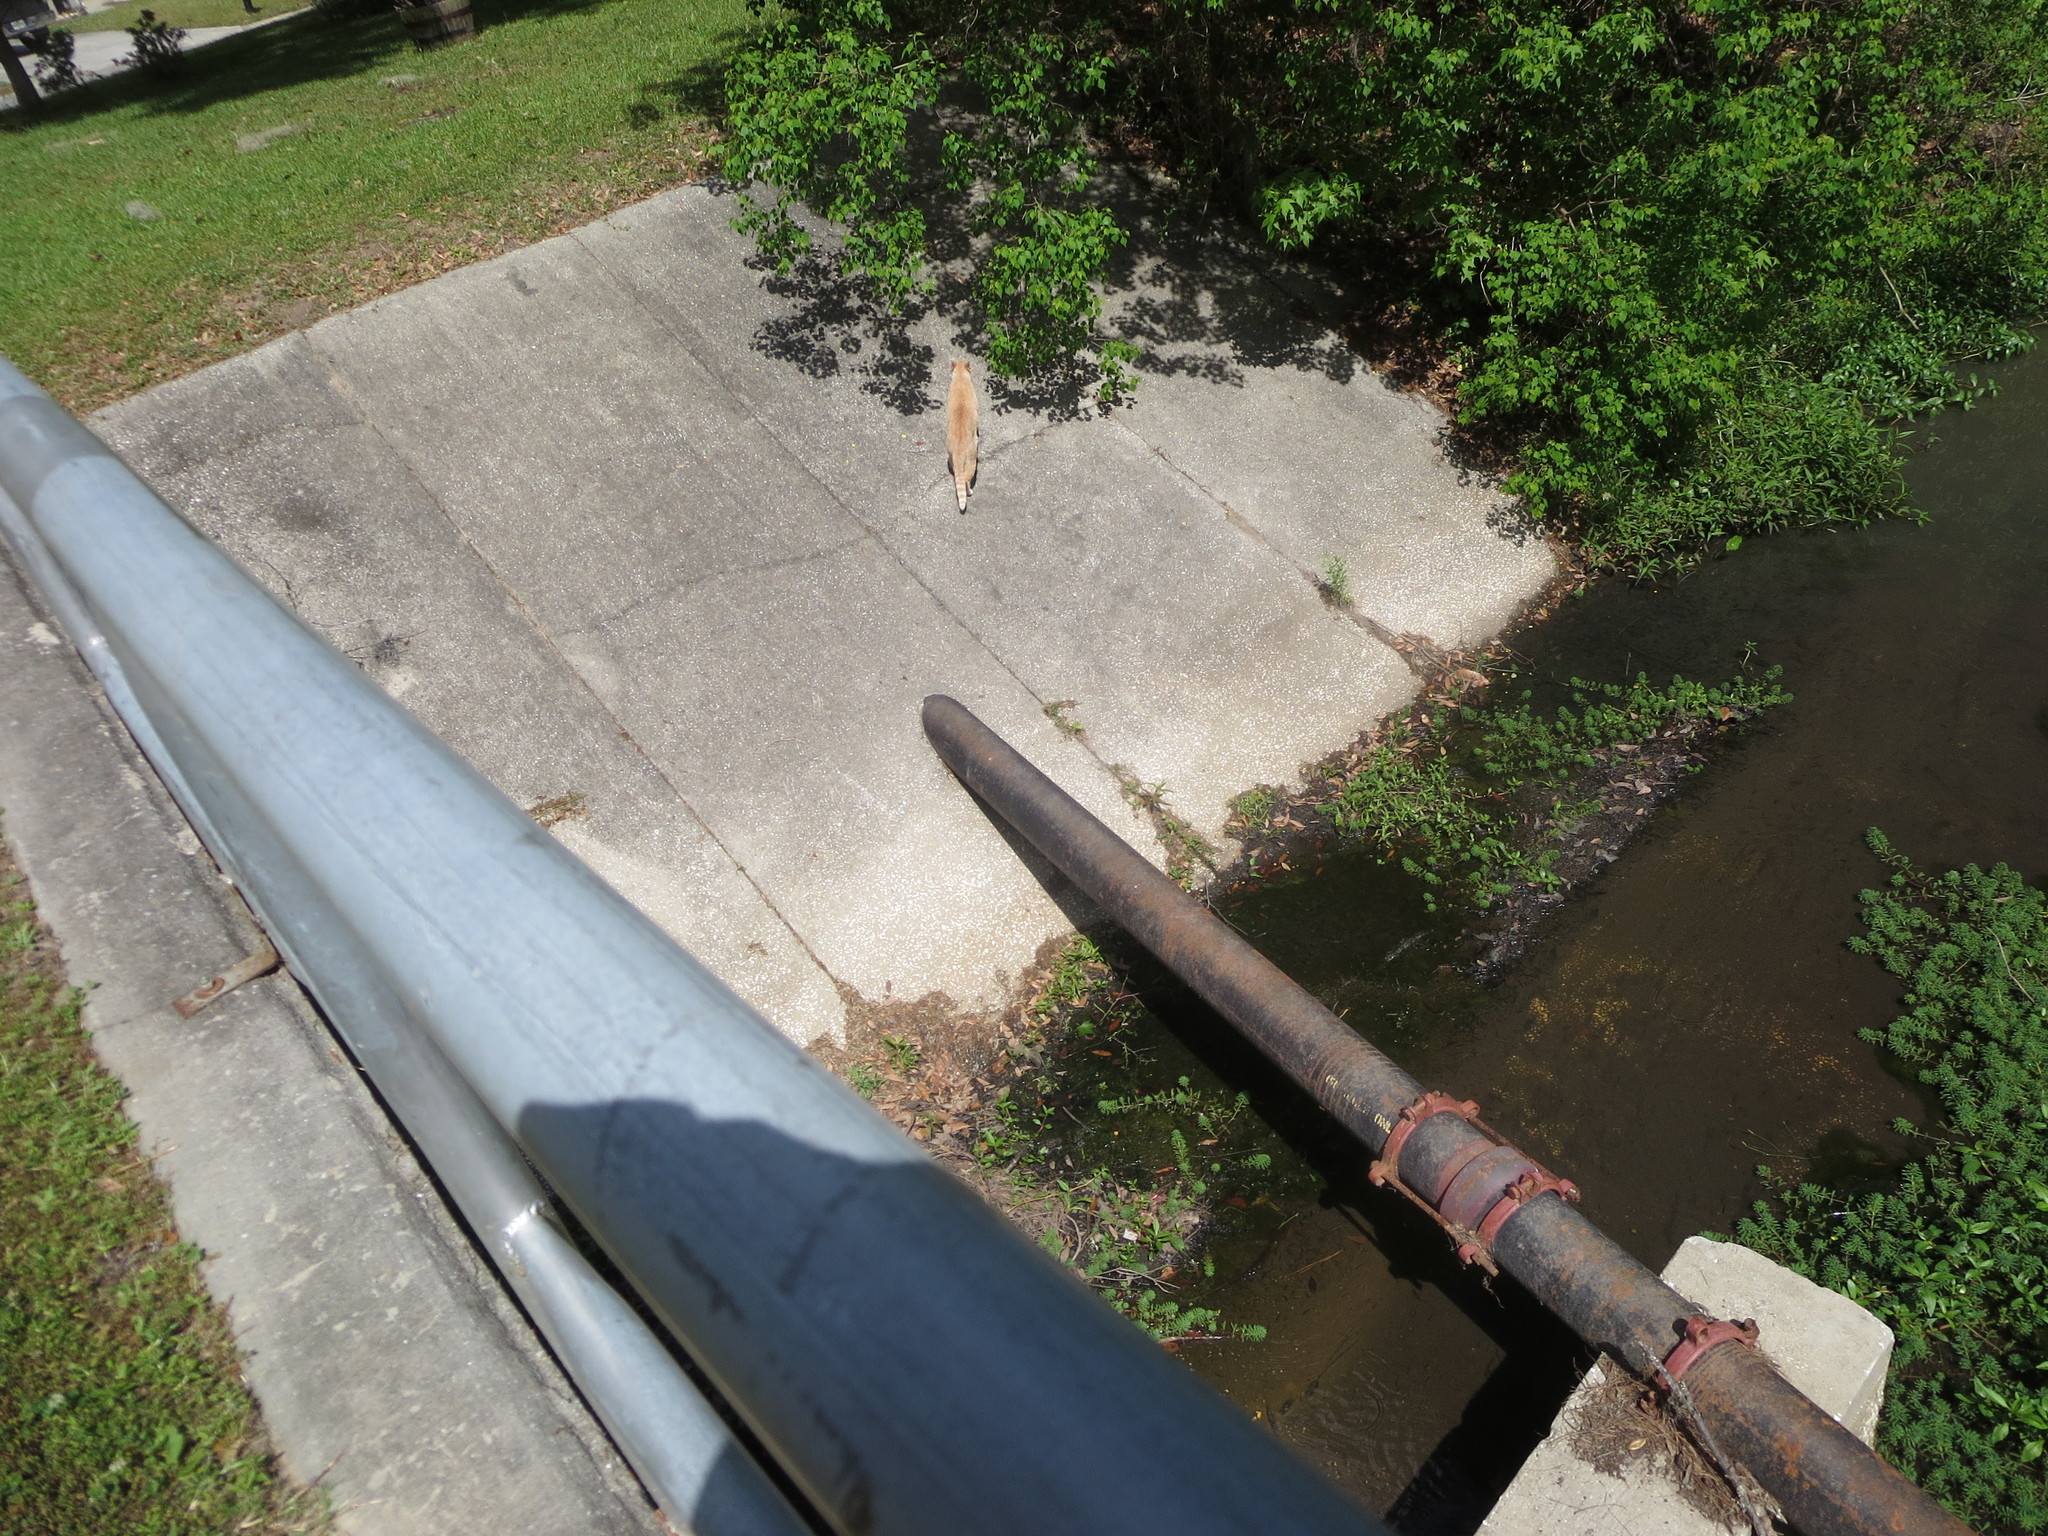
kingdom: Animalia
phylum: Chordata
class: Mammalia
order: Carnivora
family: Felidae
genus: Felis
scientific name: Felis catus
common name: Domestic cat
